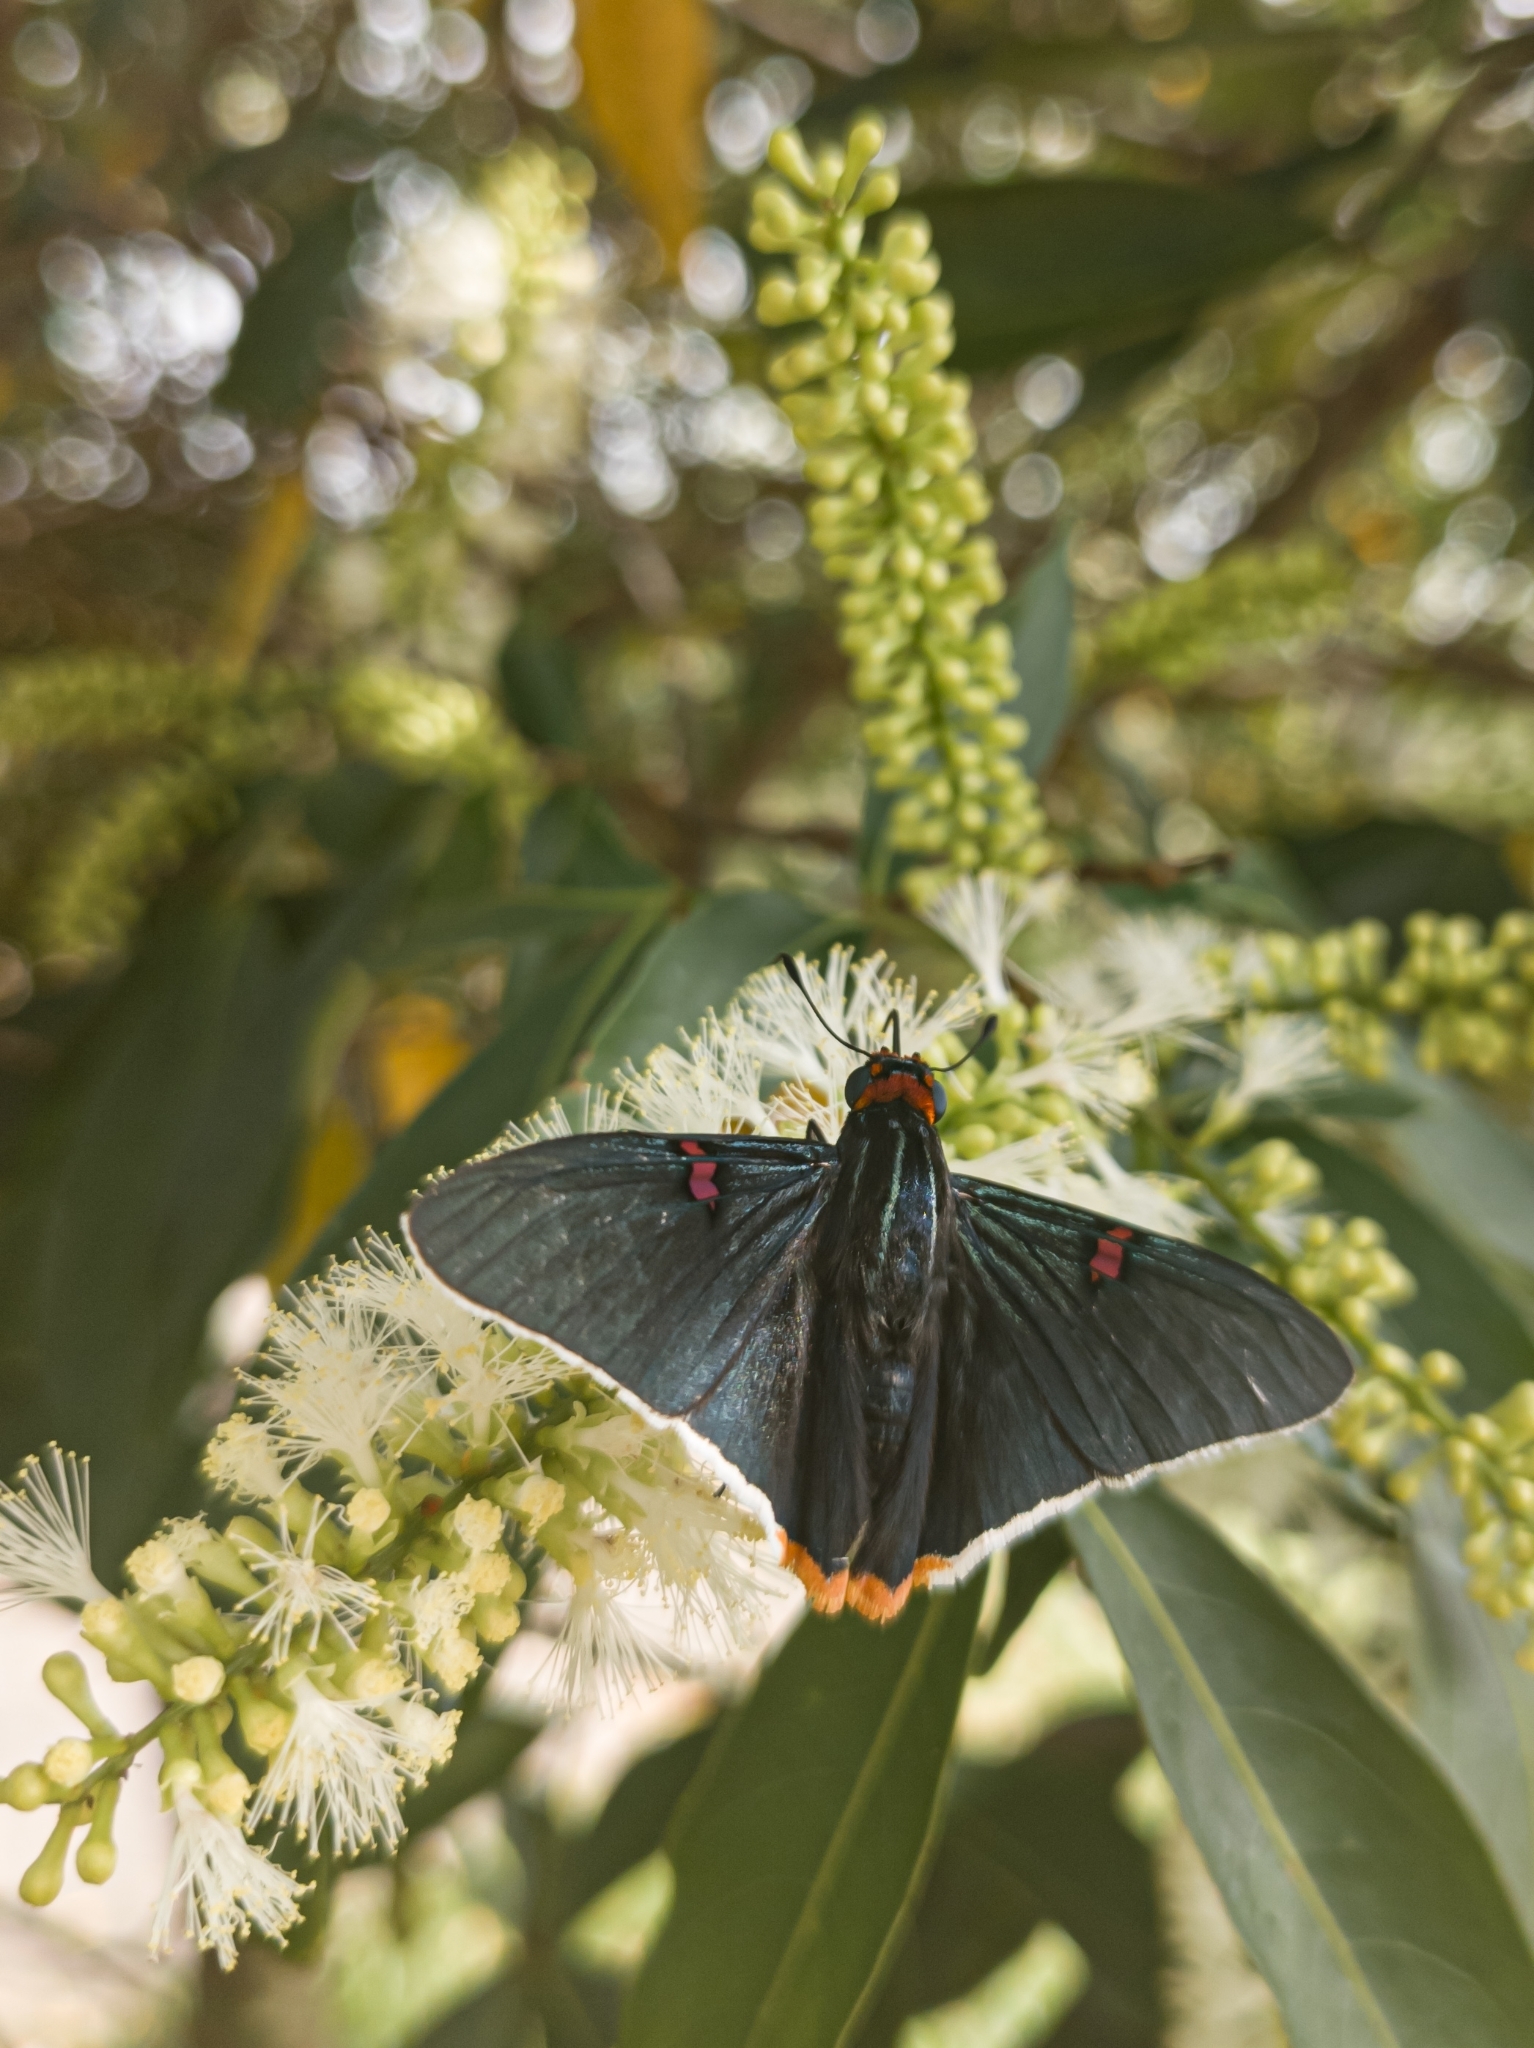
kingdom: Animalia
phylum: Arthropoda
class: Insecta
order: Lepidoptera
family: Hesperiidae
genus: Phocides
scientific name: Phocides polybius
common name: Guava skipper
